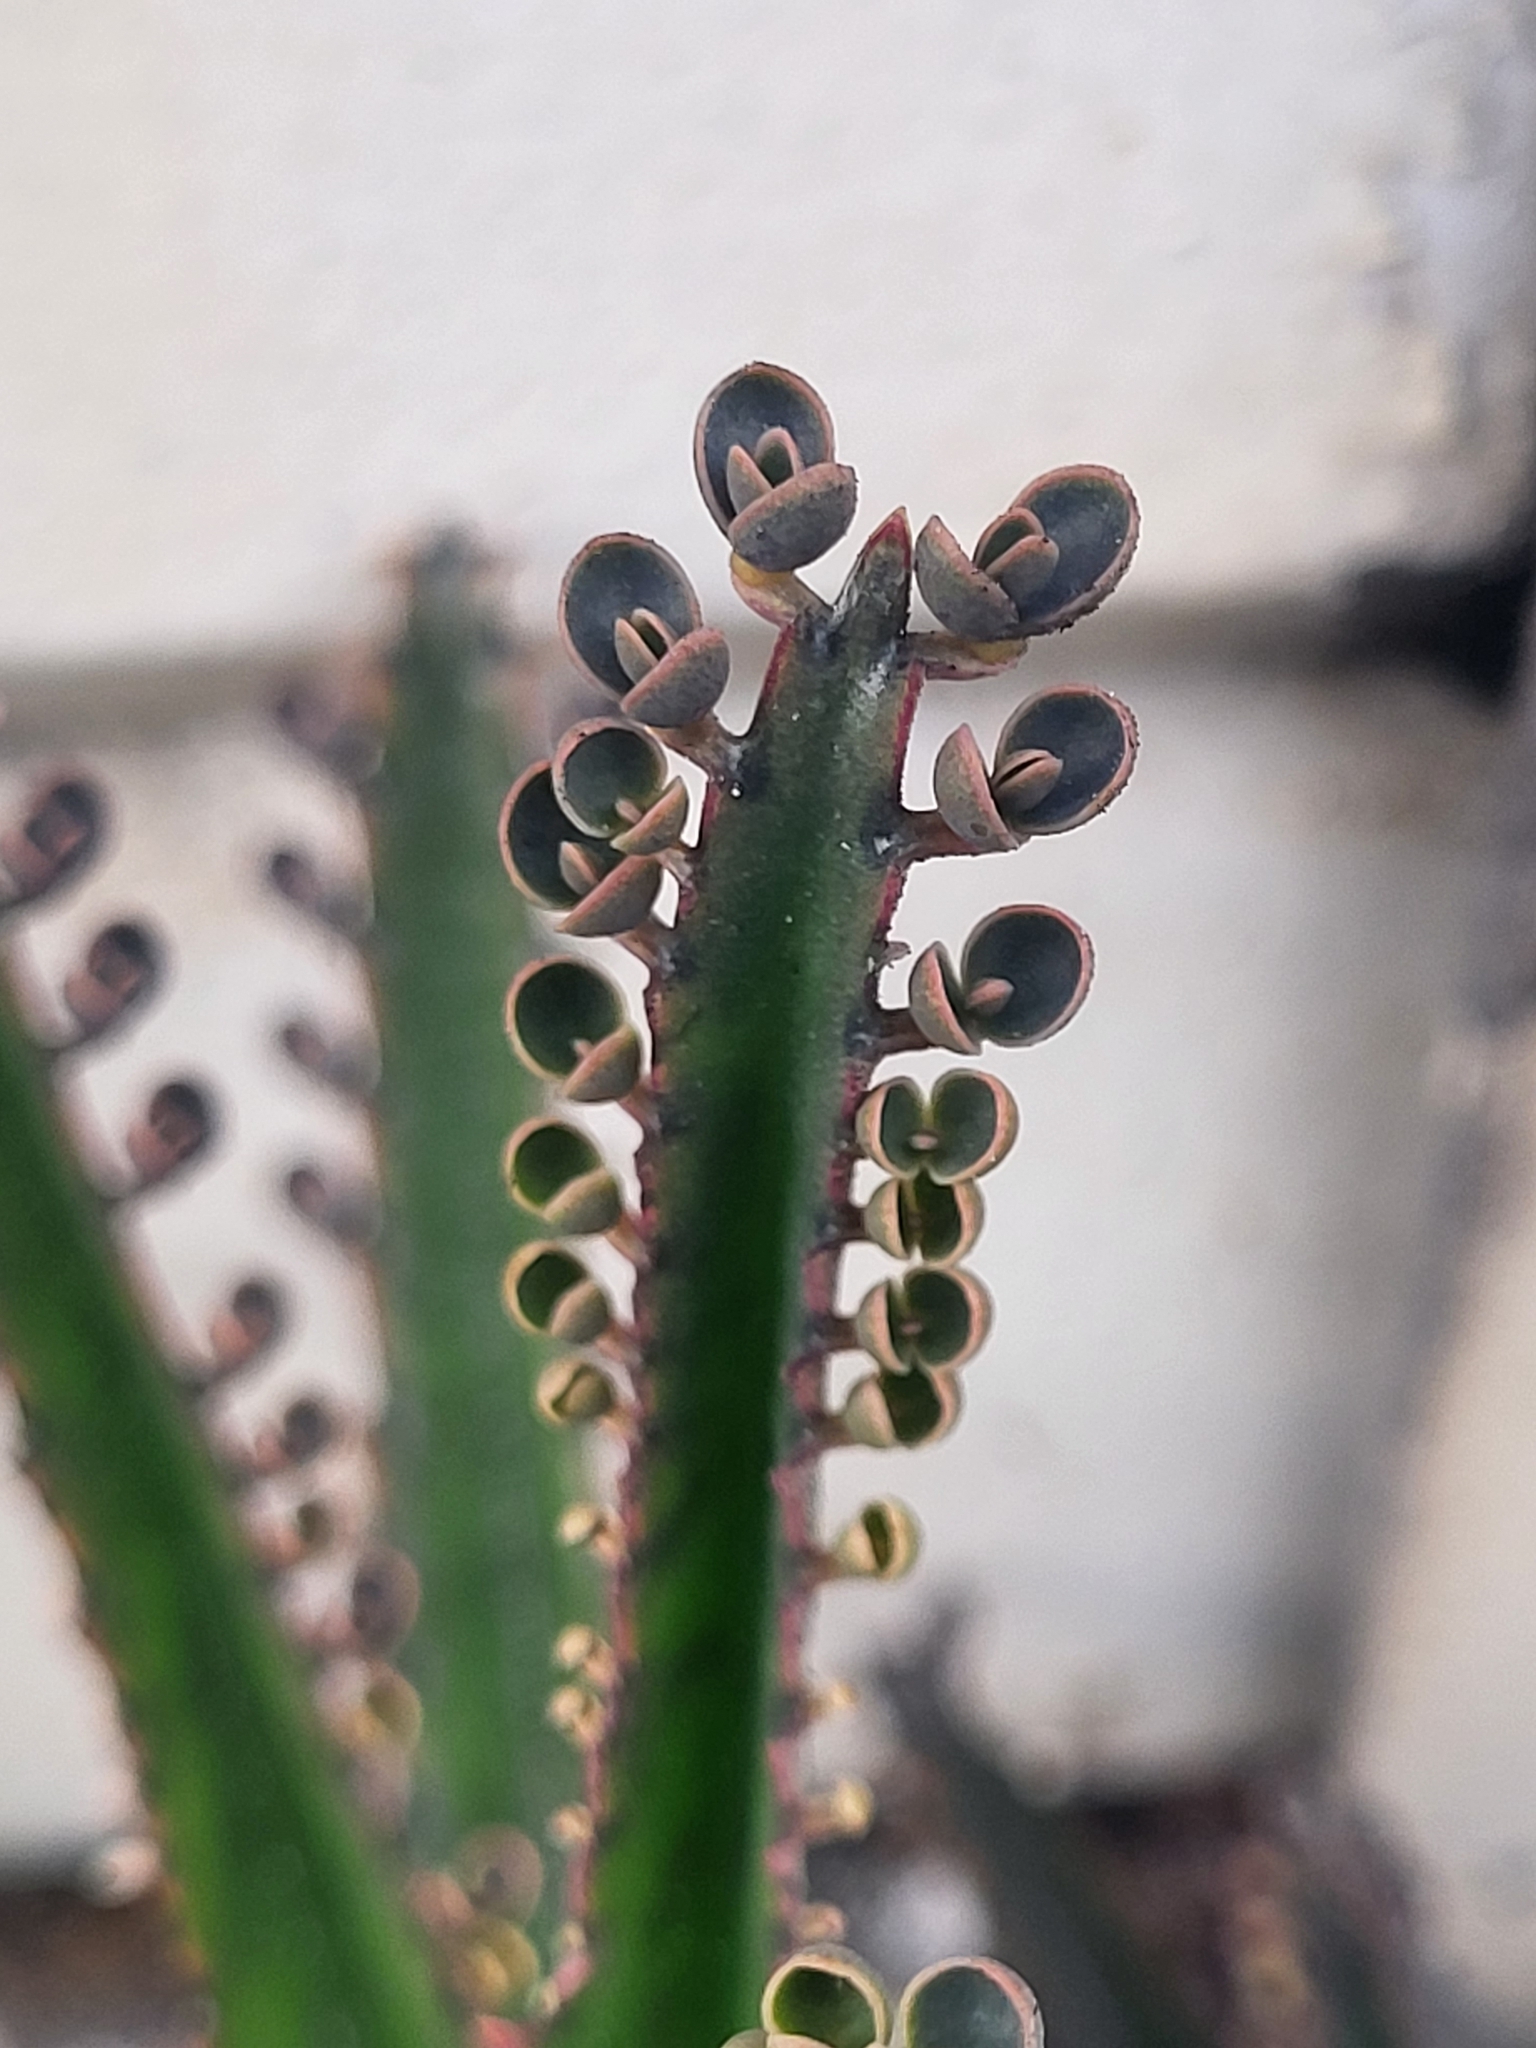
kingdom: Plantae
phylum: Tracheophyta
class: Magnoliopsida
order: Saxifragales
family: Crassulaceae
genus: Kalanchoe
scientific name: Kalanchoe houghtonii
